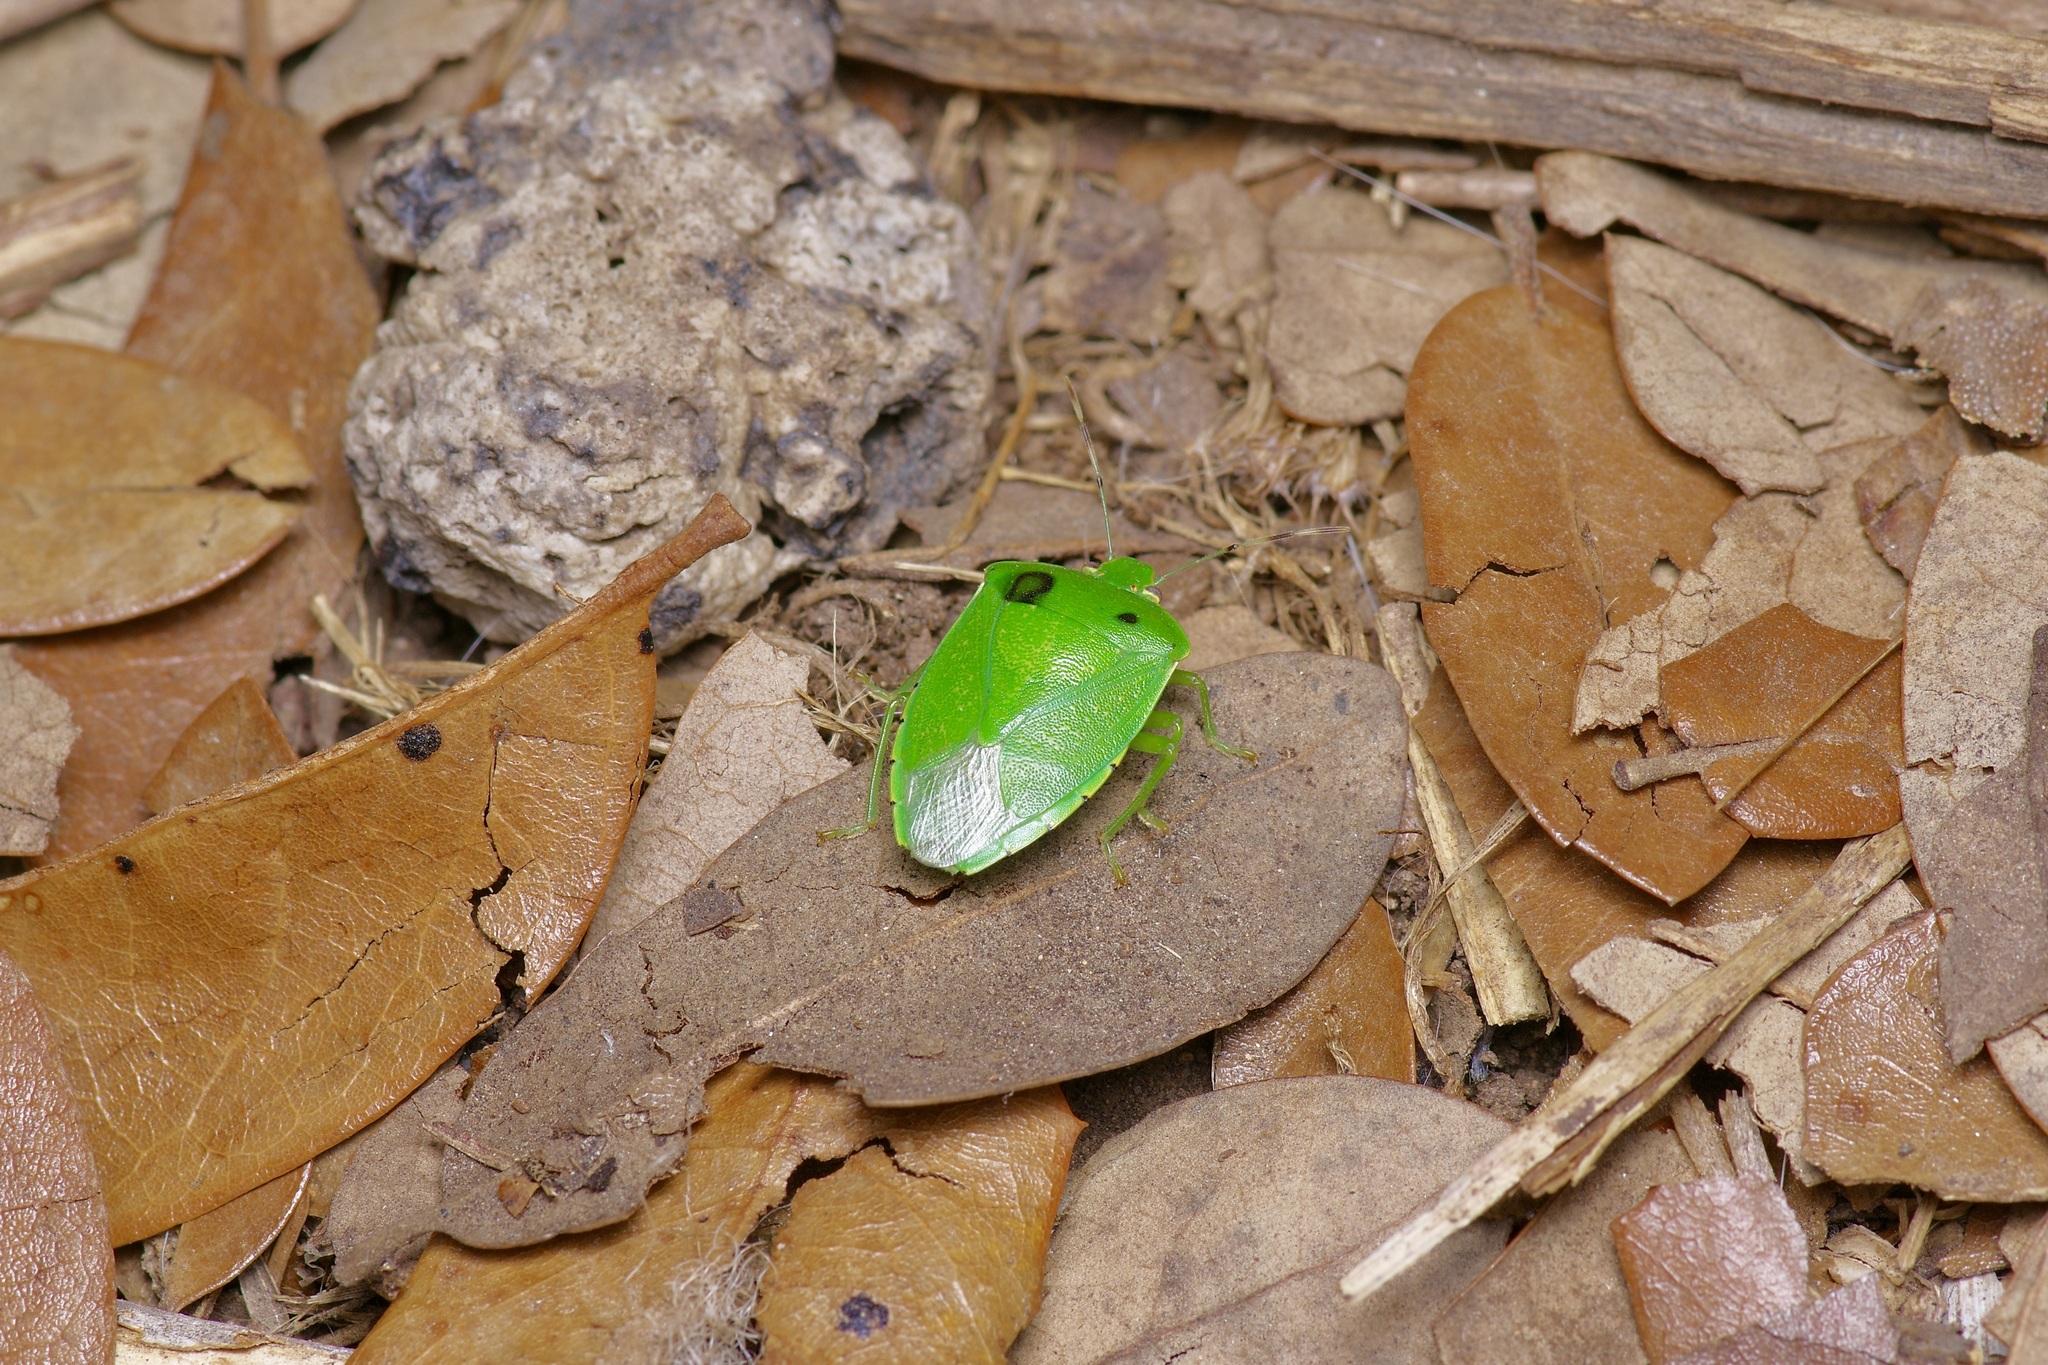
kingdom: Animalia
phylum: Arthropoda
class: Insecta
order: Hemiptera
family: Pentatomidae
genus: Chinavia
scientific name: Chinavia hilaris
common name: Green stink bug
